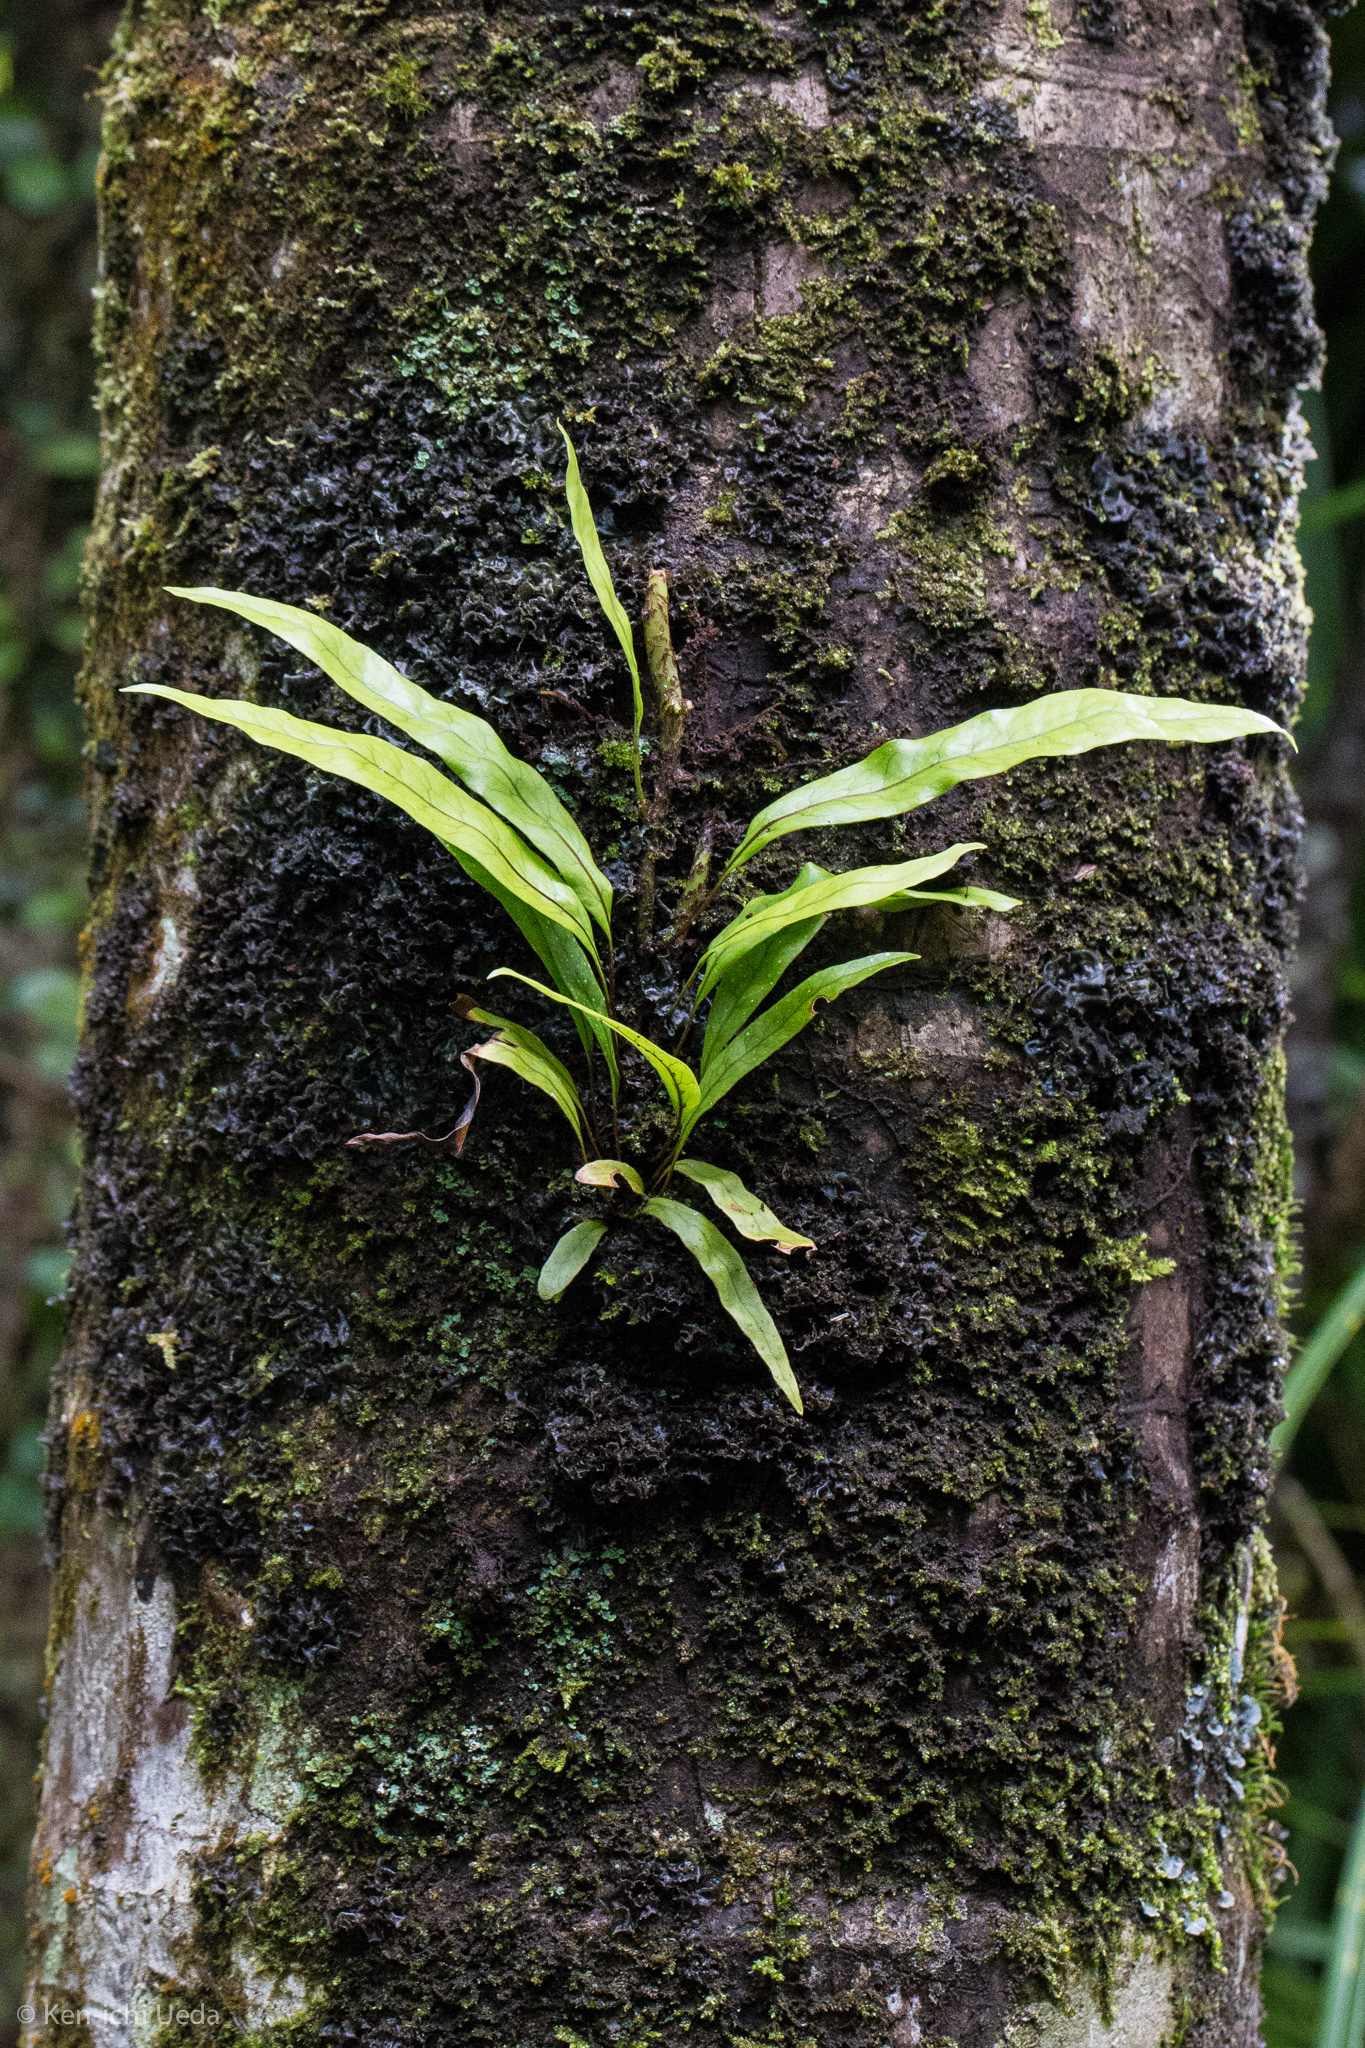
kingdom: Plantae
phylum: Tracheophyta
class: Polypodiopsida
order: Polypodiales
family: Polypodiaceae
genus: Lecanopteris
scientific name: Lecanopteris pustulata
